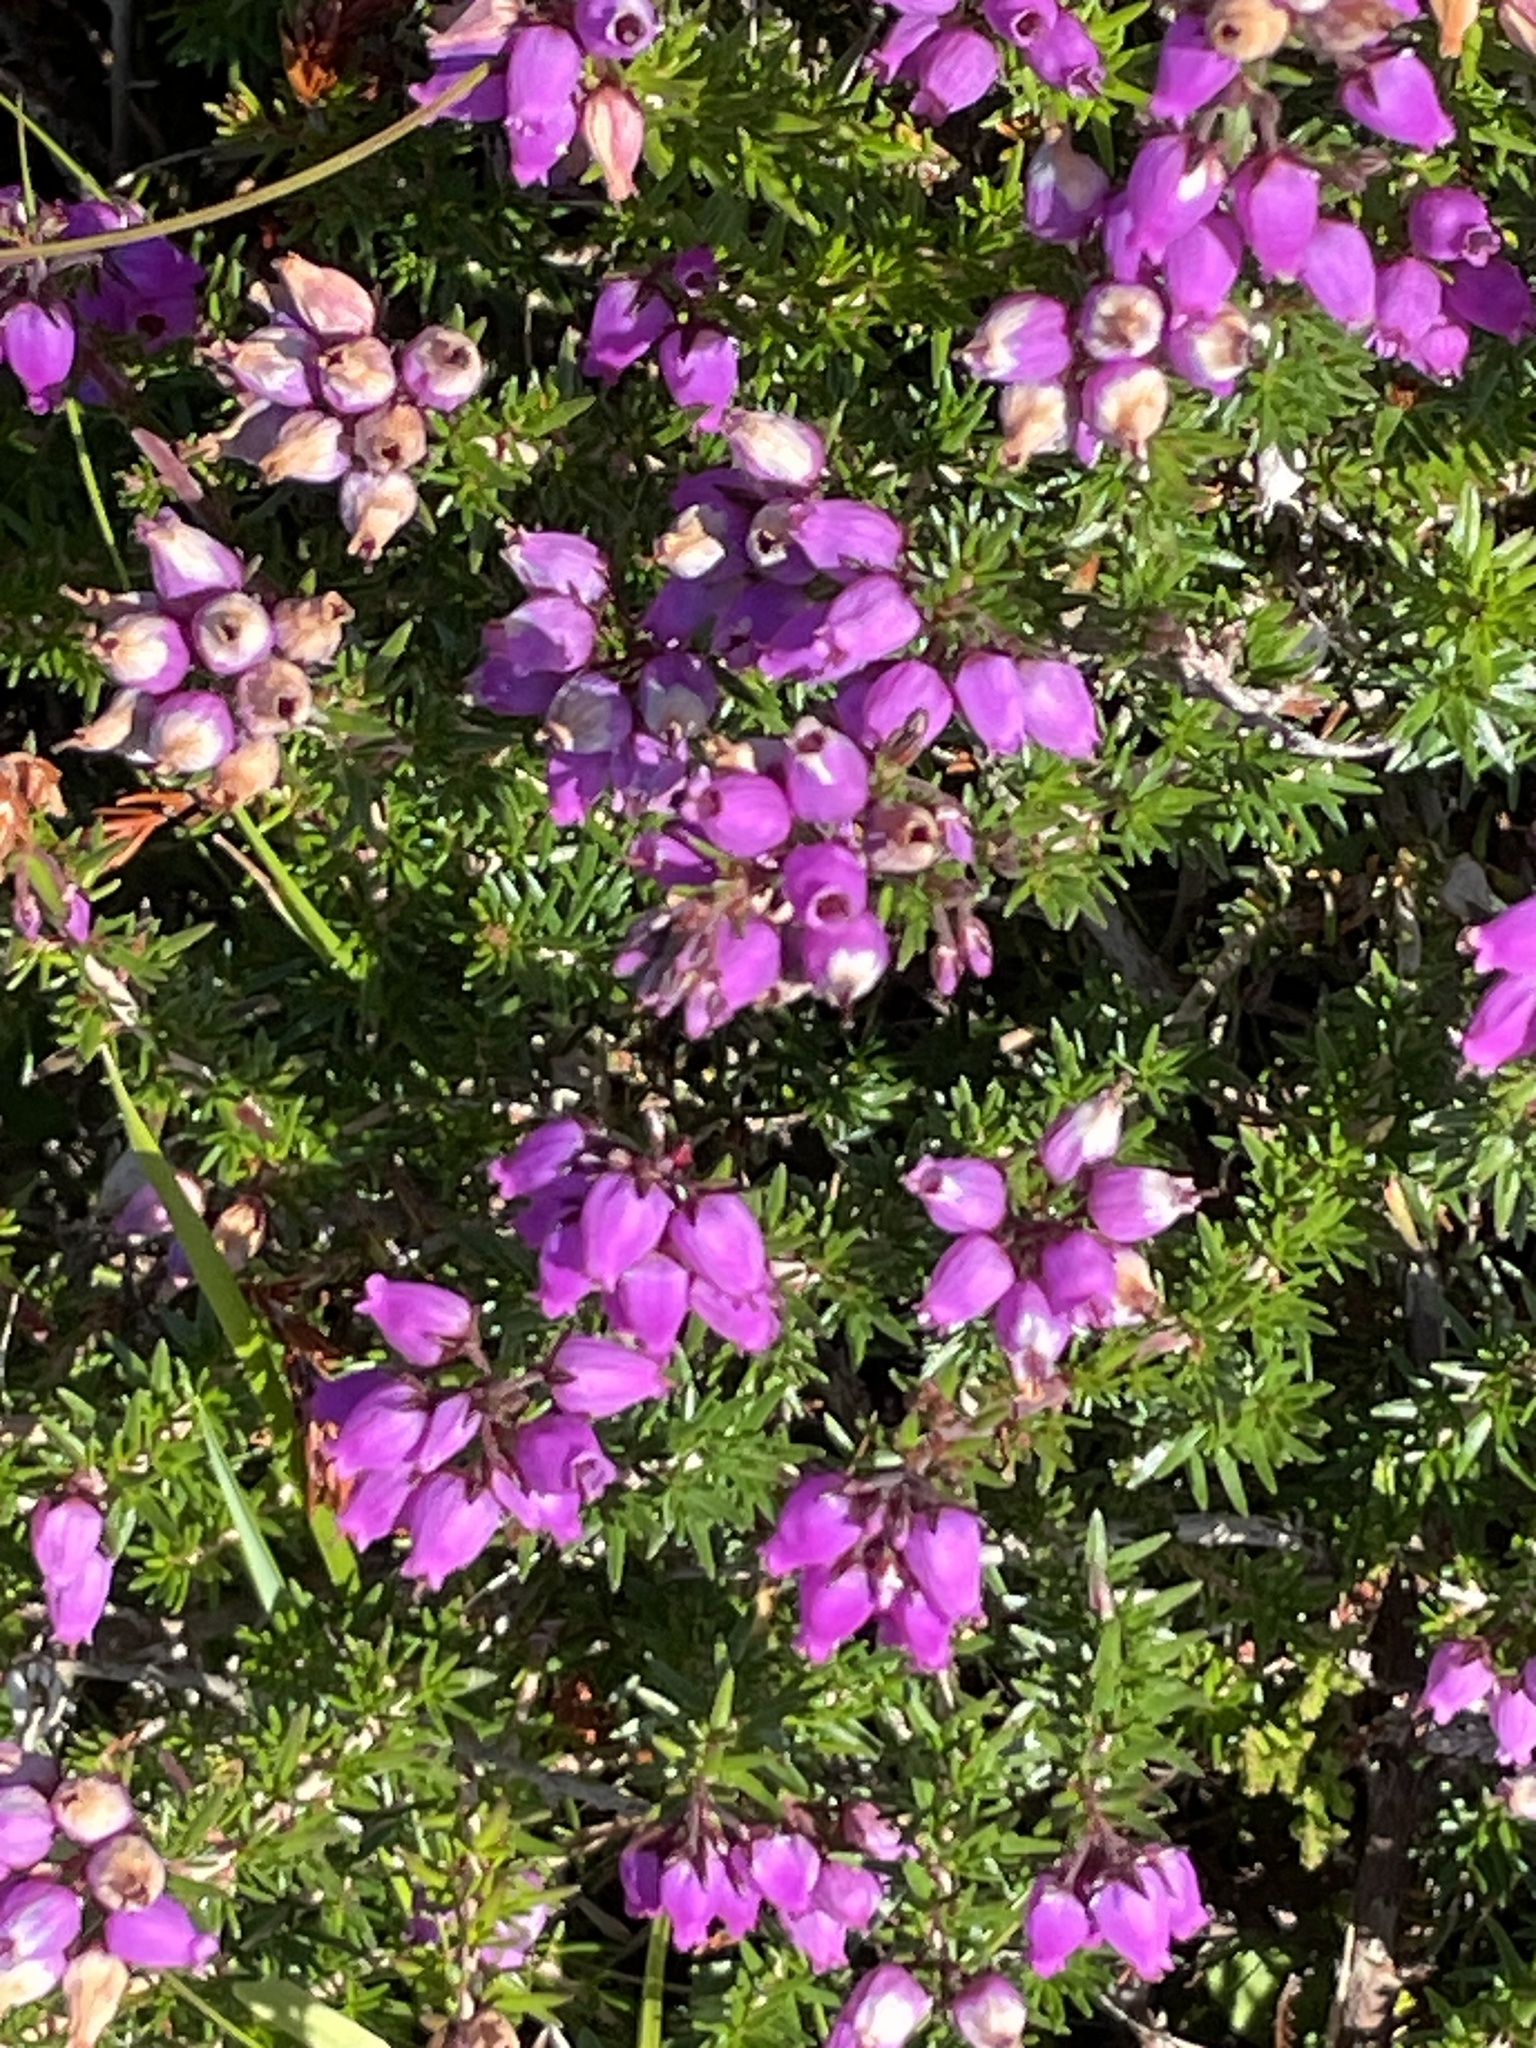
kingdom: Plantae
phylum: Tracheophyta
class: Magnoliopsida
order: Ericales
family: Ericaceae
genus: Erica
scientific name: Erica cinerea
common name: Bell heather
